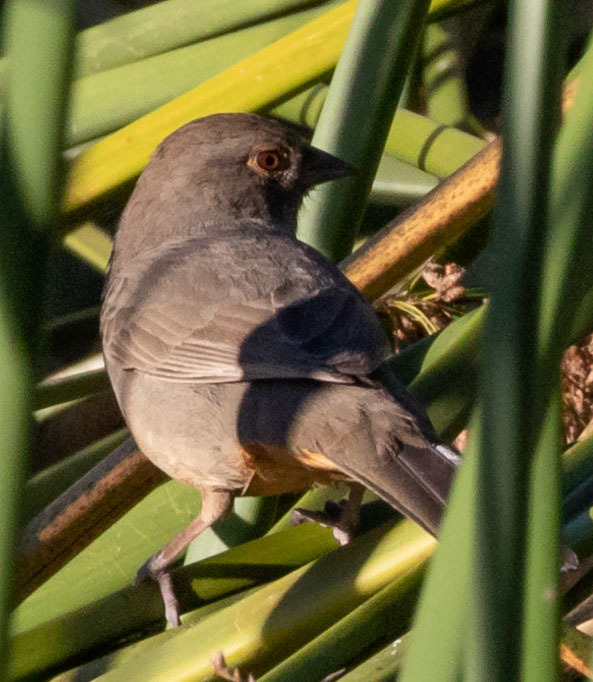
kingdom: Animalia
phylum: Chordata
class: Aves
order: Passeriformes
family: Passerellidae
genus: Melozone
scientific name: Melozone crissalis
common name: California towhee
